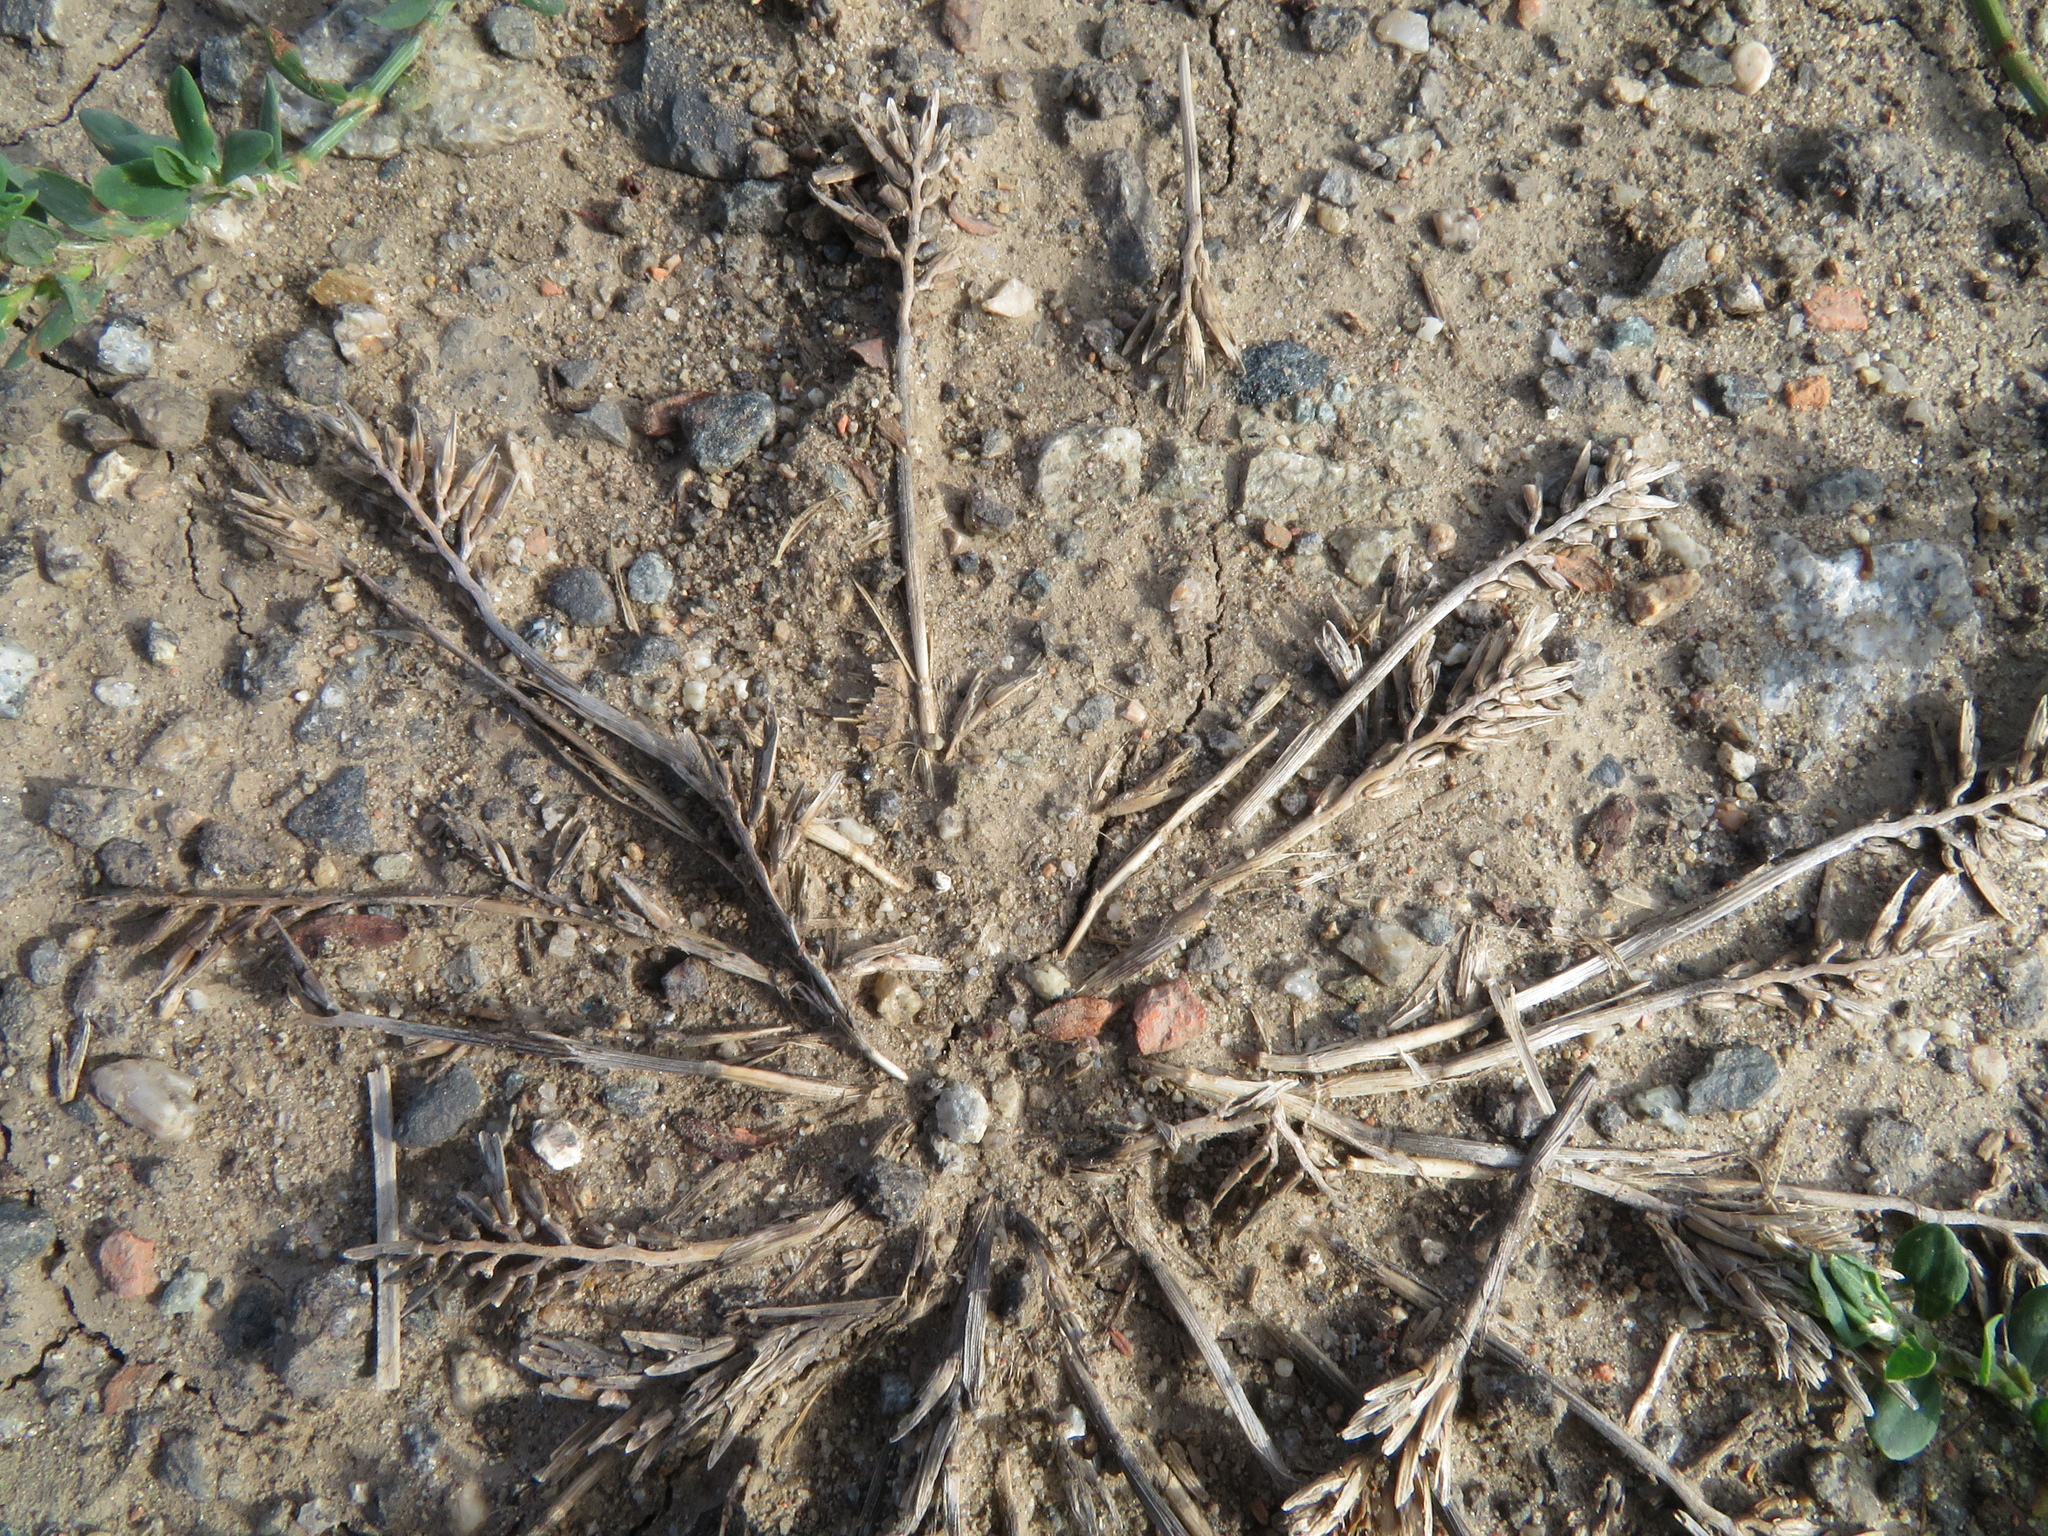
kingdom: Plantae
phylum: Tracheophyta
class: Liliopsida
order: Poales
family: Poaceae
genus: Sclerochloa
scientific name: Sclerochloa dura
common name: Common hardgrass
